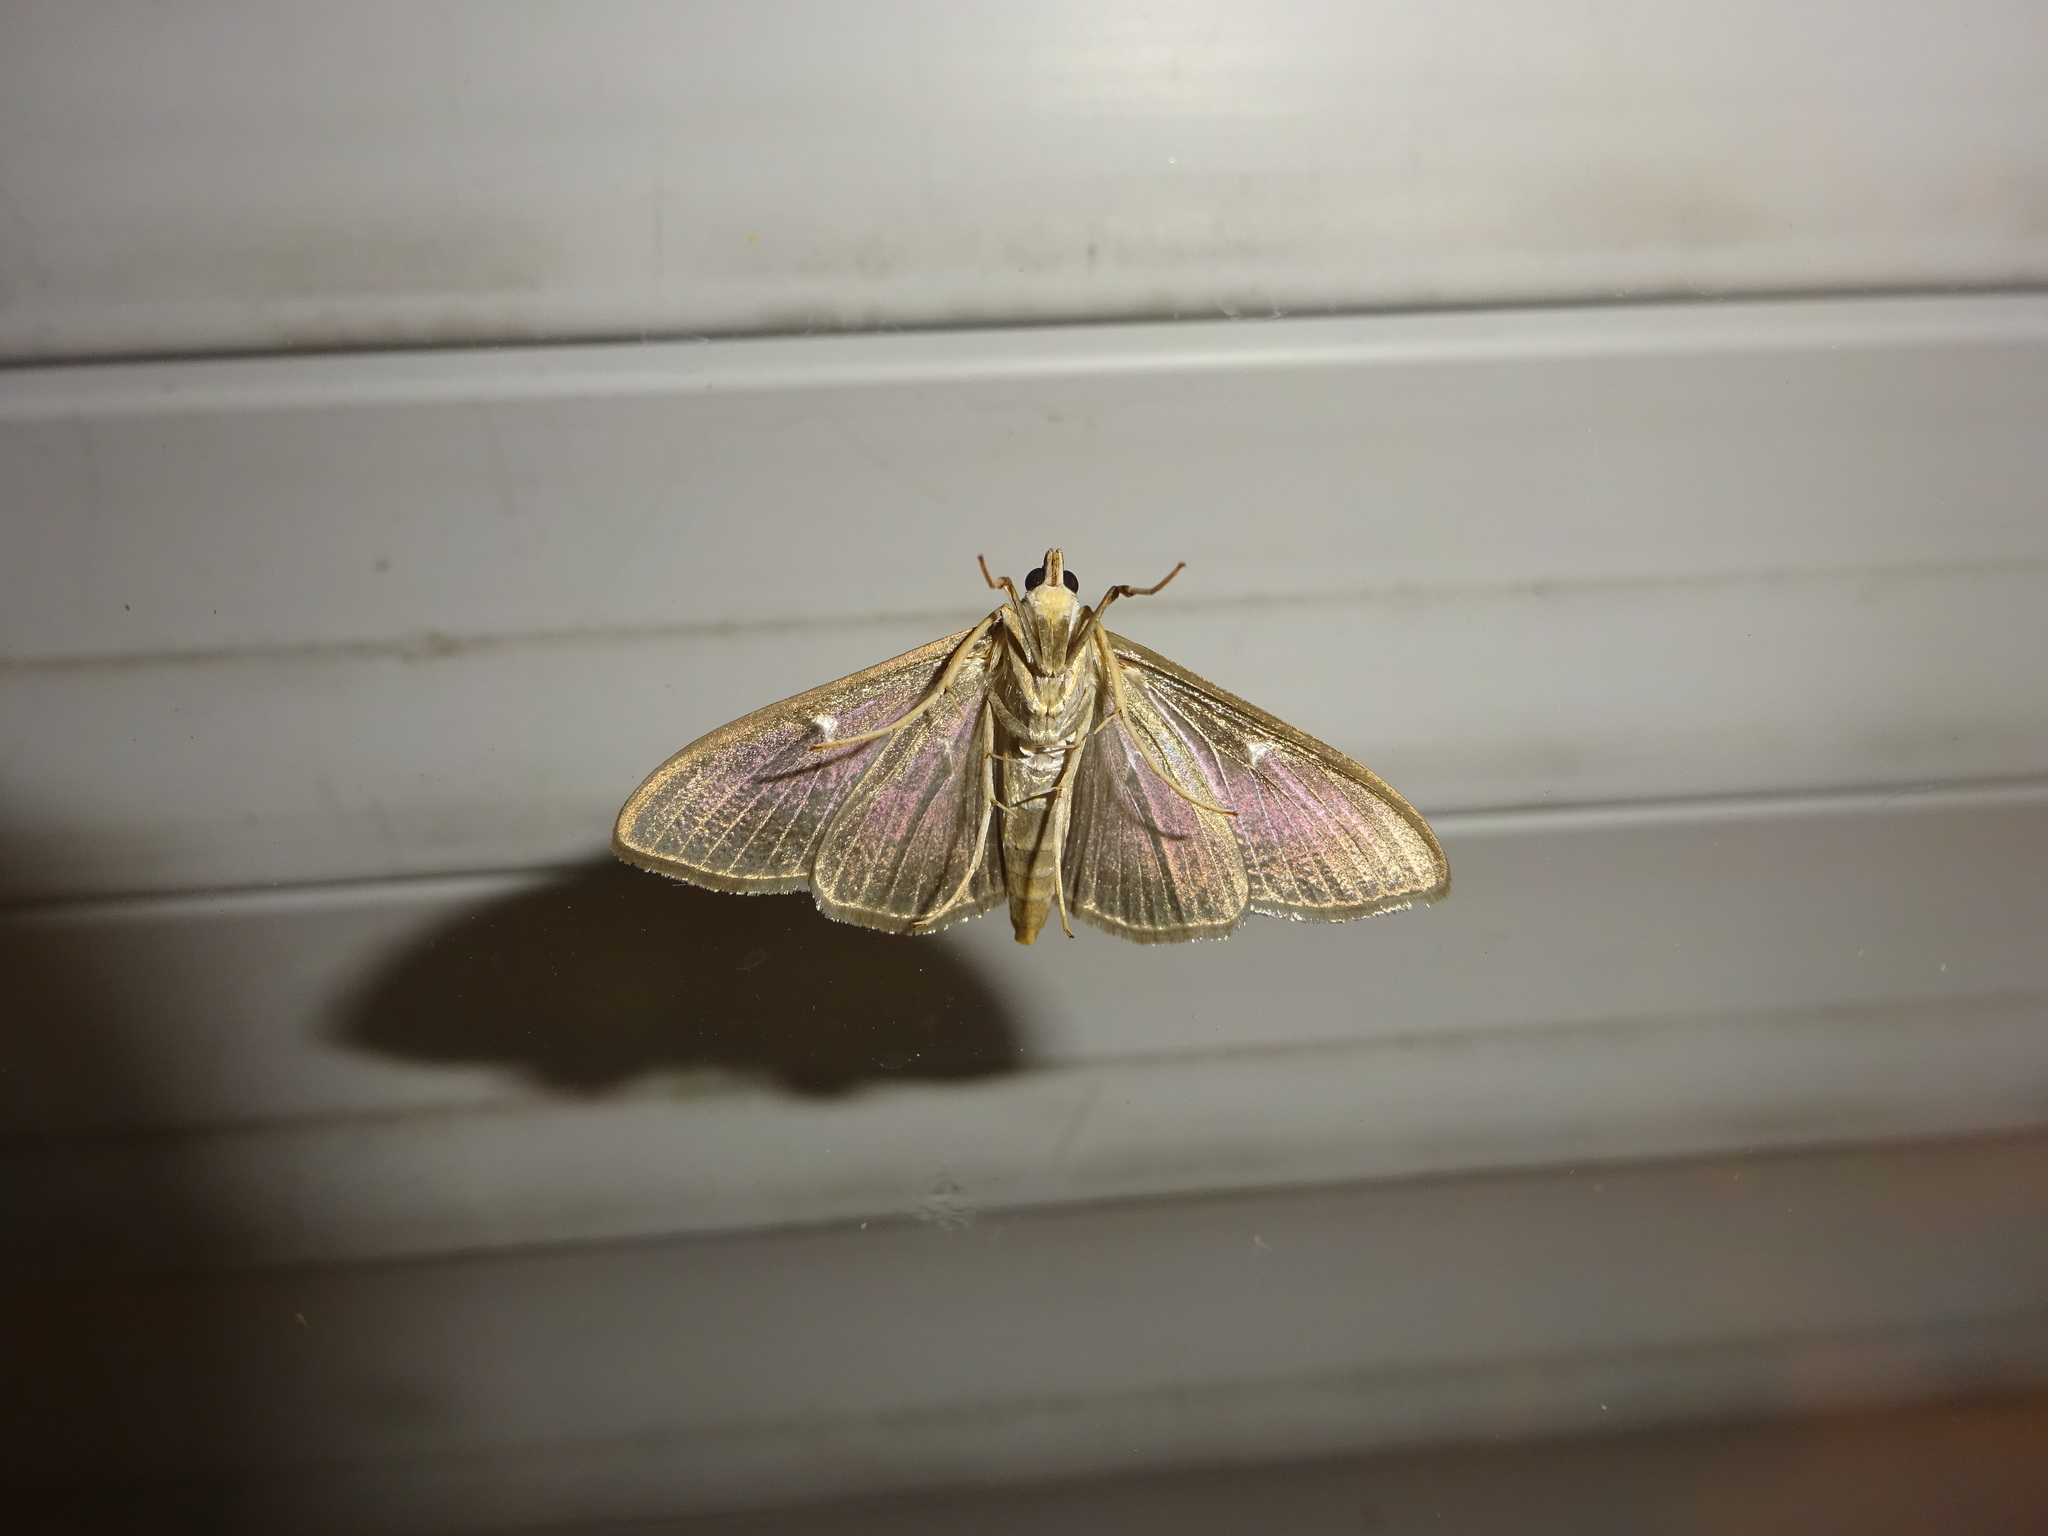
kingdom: Animalia
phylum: Arthropoda
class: Insecta
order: Lepidoptera
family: Crambidae
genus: Cydalima
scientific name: Cydalima perspectalis
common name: Box tree moth
